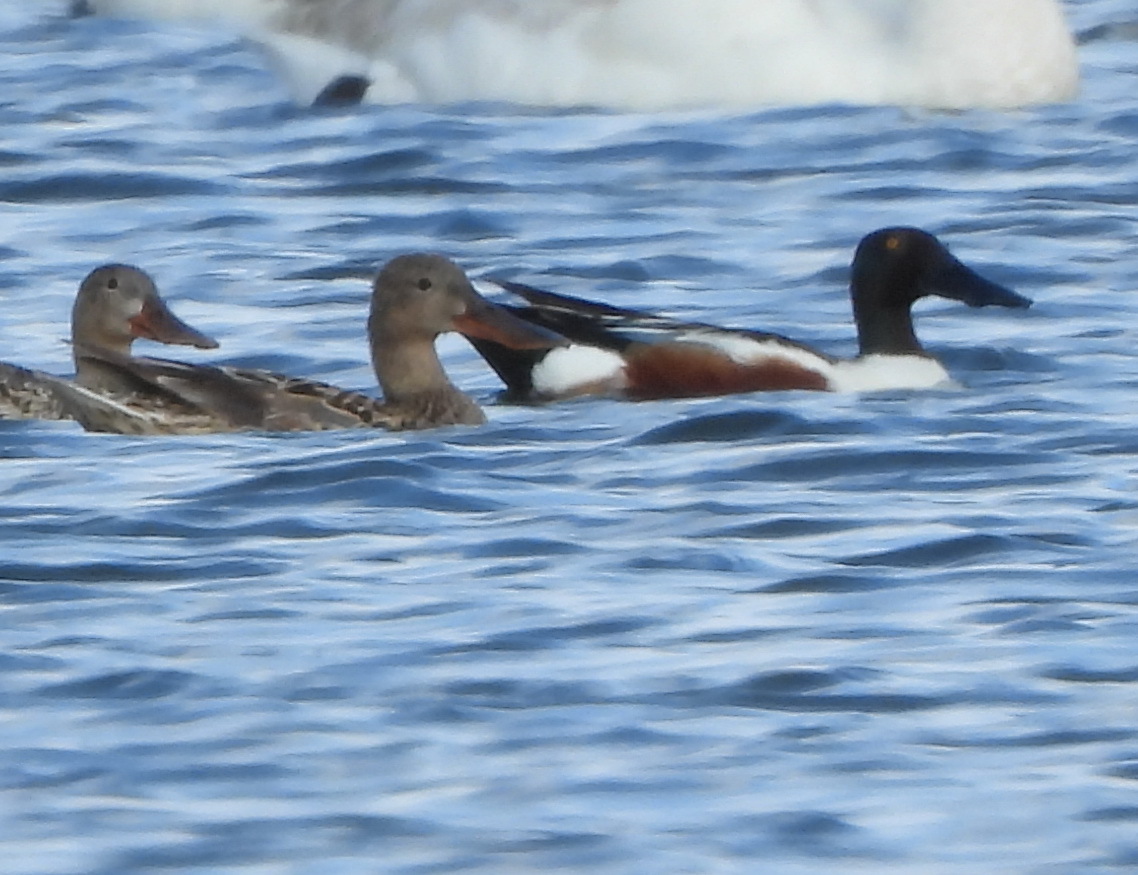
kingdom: Animalia
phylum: Chordata
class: Aves
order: Anseriformes
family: Anatidae
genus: Spatula
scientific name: Spatula clypeata
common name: Northern shoveler
